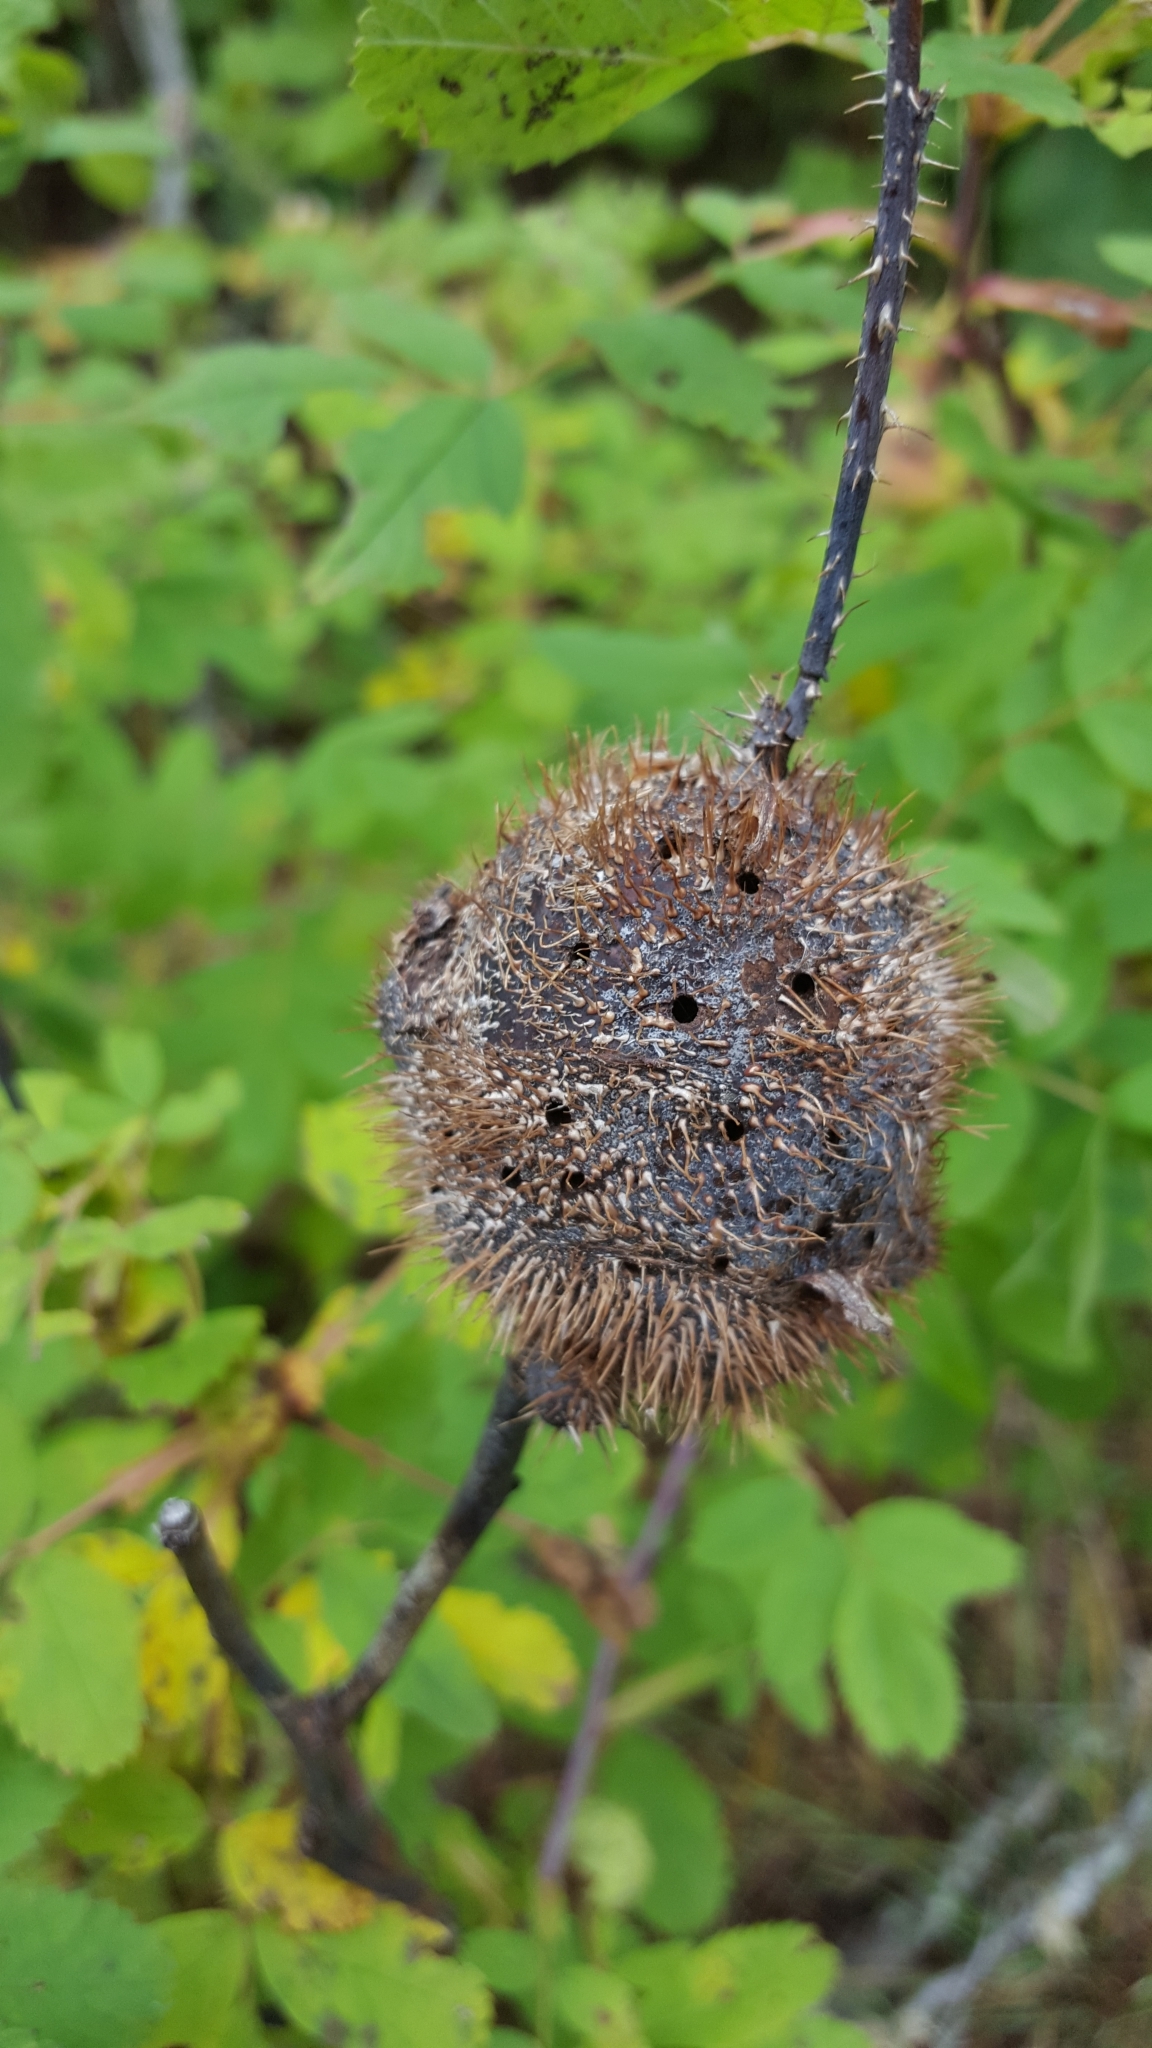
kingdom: Animalia
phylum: Arthropoda
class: Insecta
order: Hymenoptera
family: Cynipidae
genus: Diplolepis
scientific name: Diplolepis spinosa
